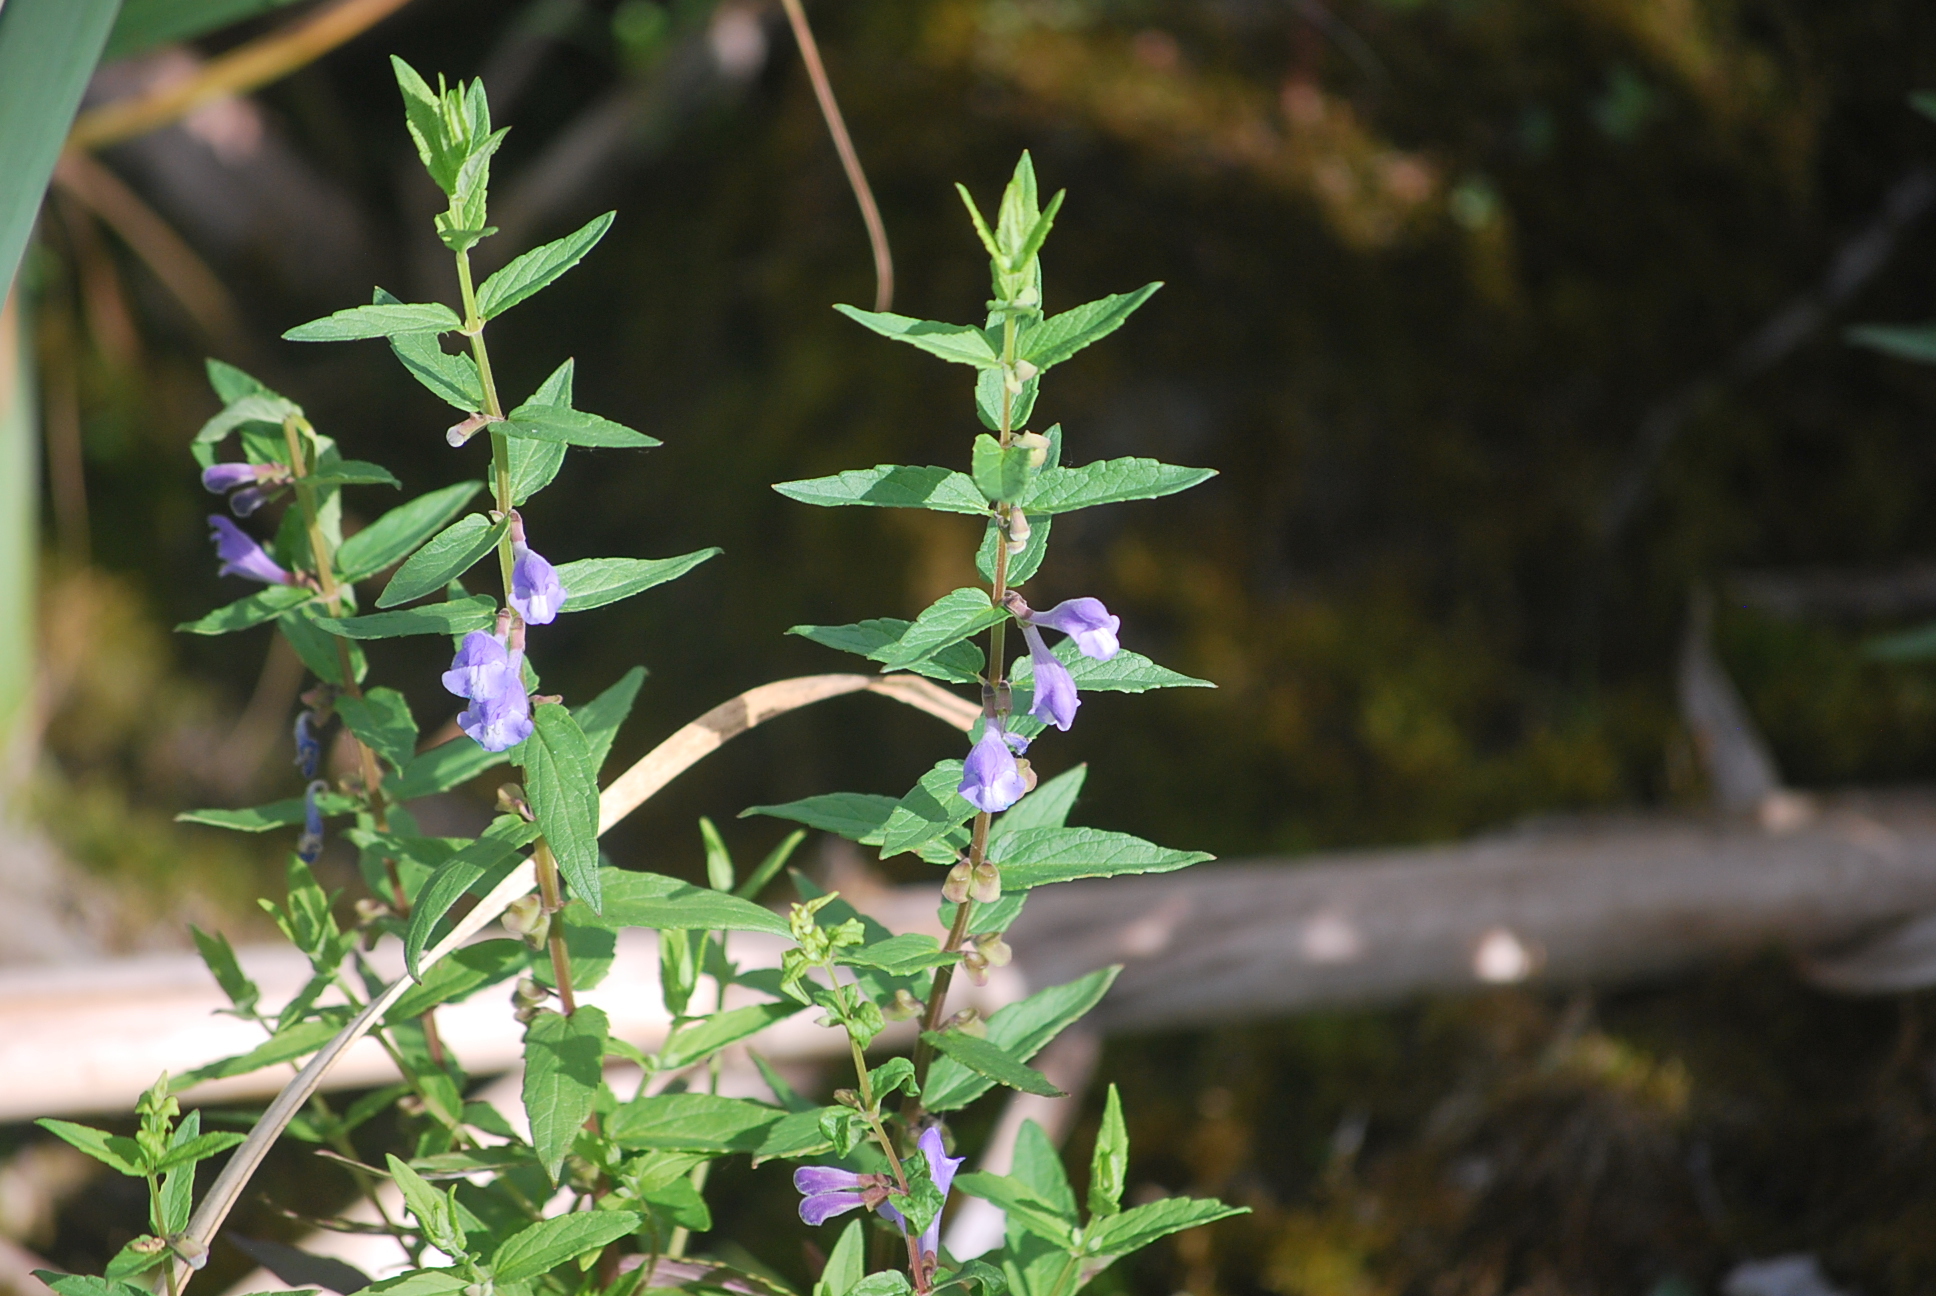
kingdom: Plantae
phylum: Tracheophyta
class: Magnoliopsida
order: Lamiales
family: Lamiaceae
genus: Scutellaria
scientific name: Scutellaria galericulata
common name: Skullcap
